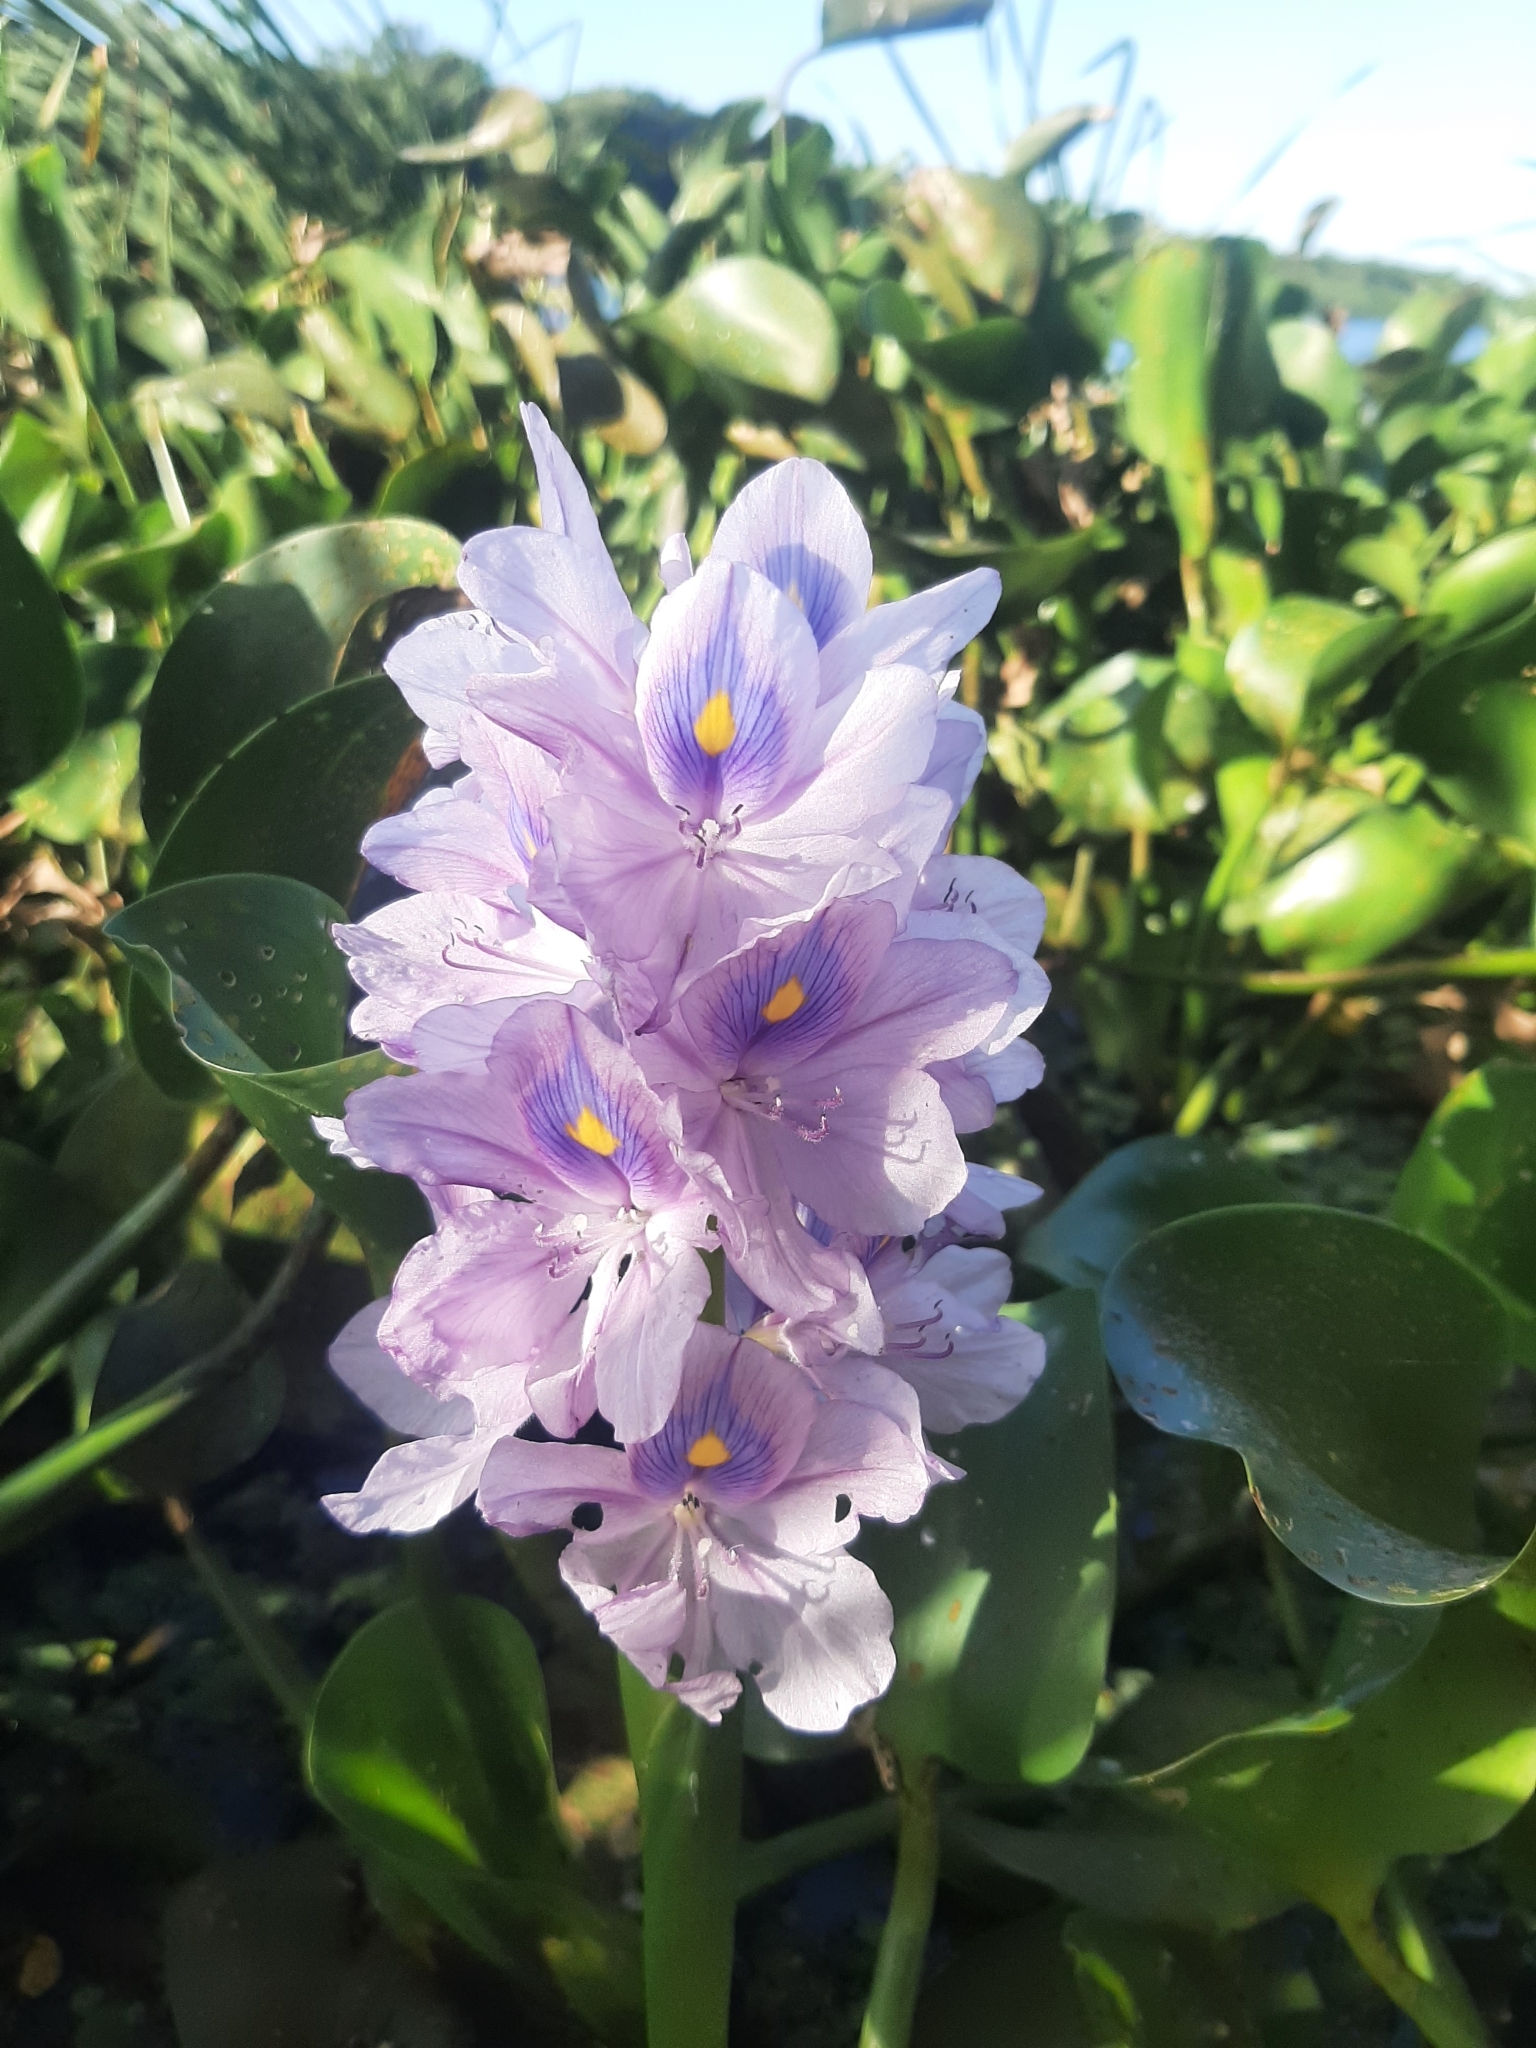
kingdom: Plantae
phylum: Tracheophyta
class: Liliopsida
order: Commelinales
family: Pontederiaceae
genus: Pontederia
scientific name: Pontederia crassipes
